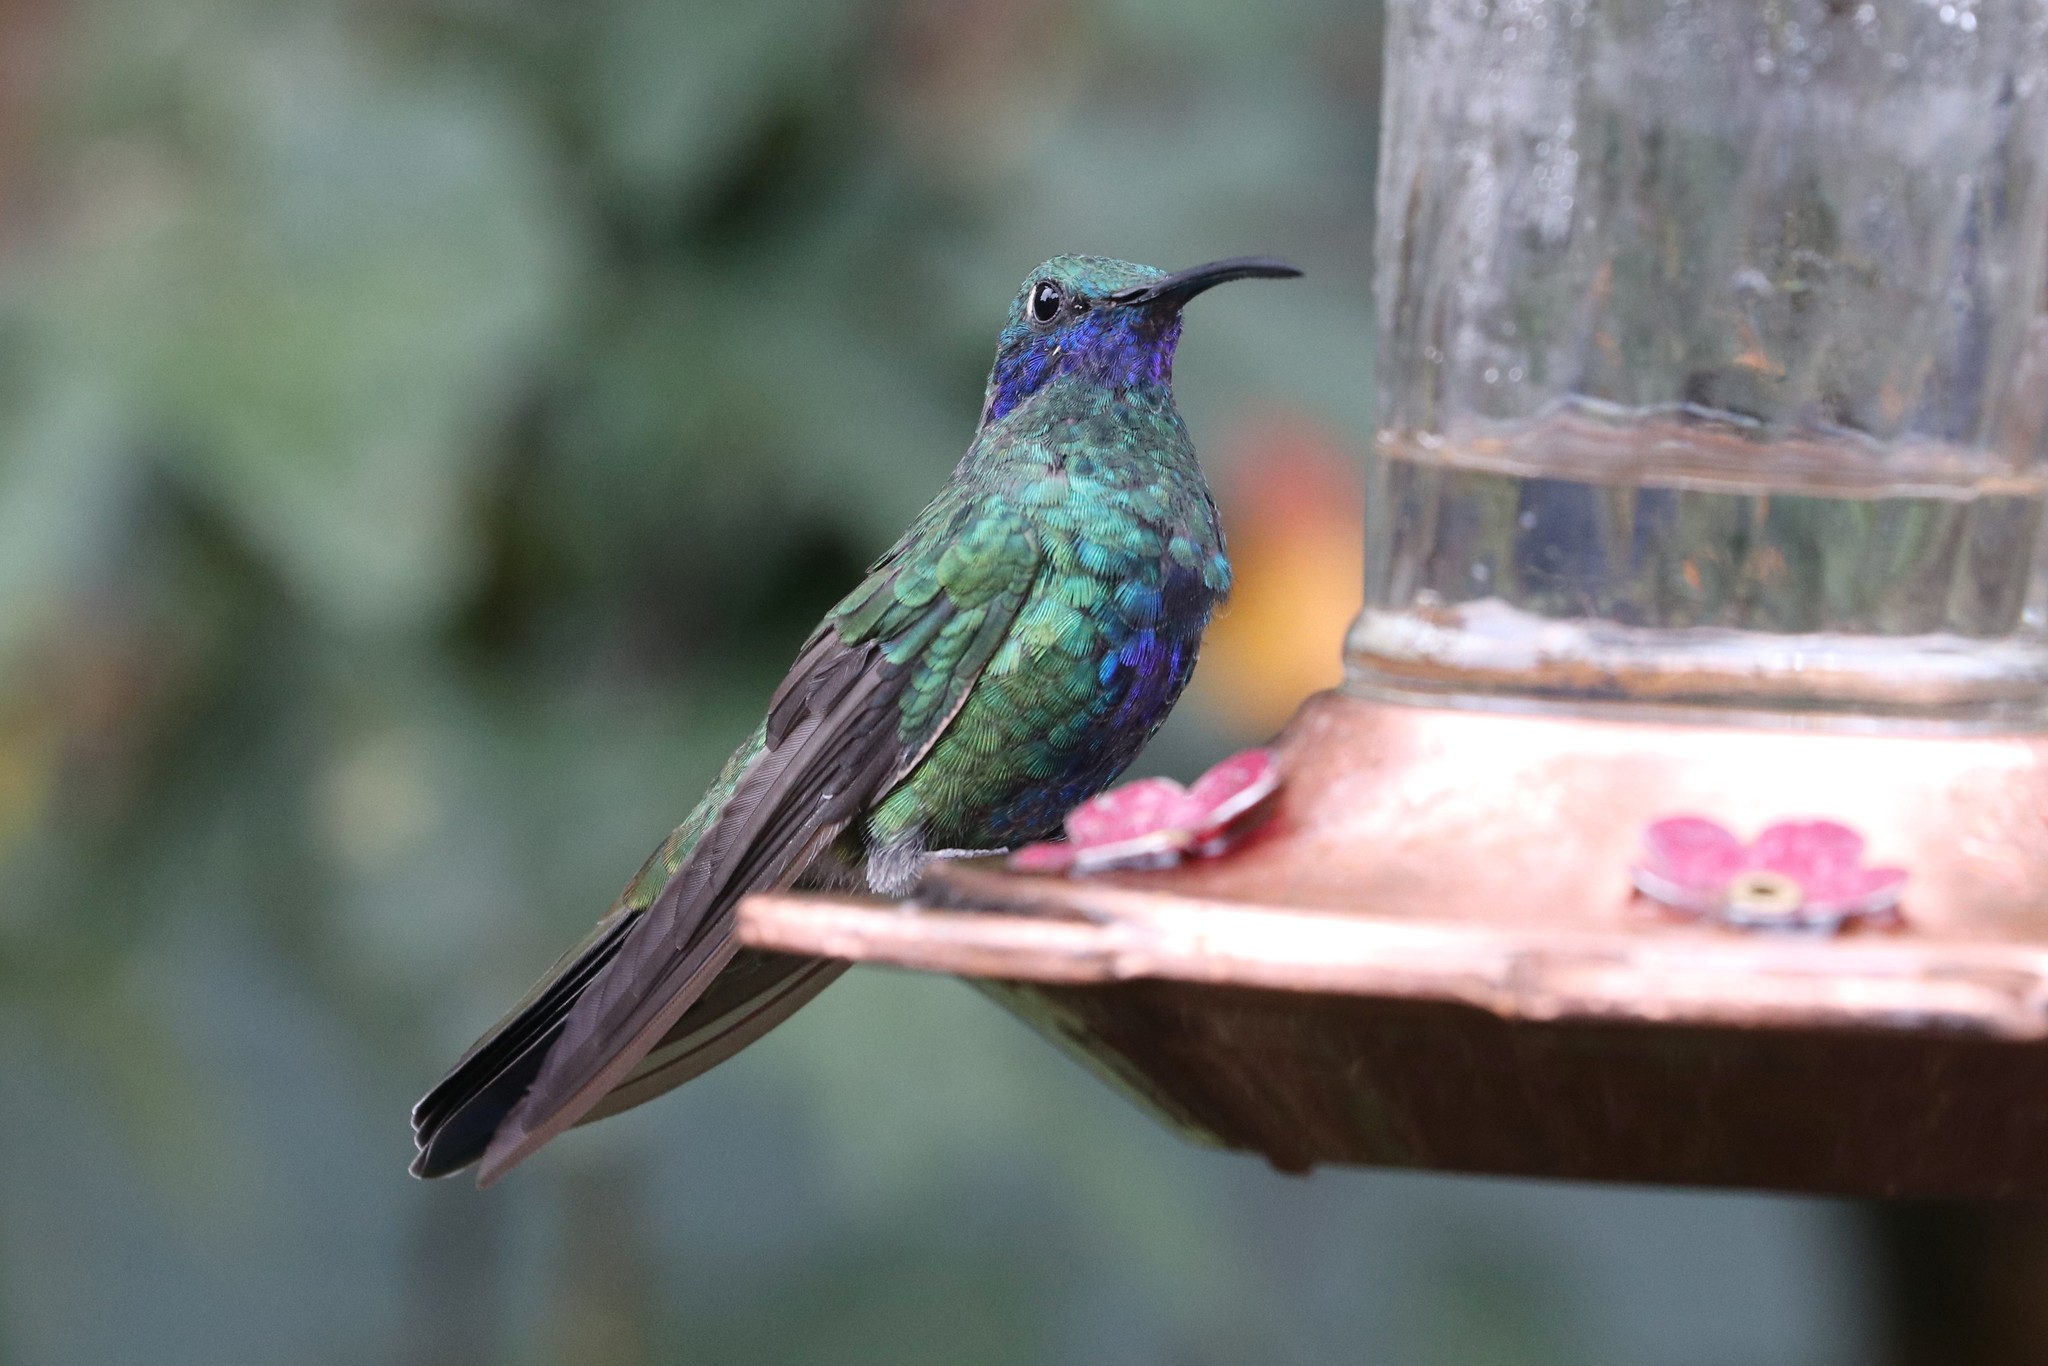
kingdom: Animalia
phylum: Chordata
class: Aves
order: Apodiformes
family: Trochilidae
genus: Colibri
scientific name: Colibri coruscans
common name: Sparkling violetear
